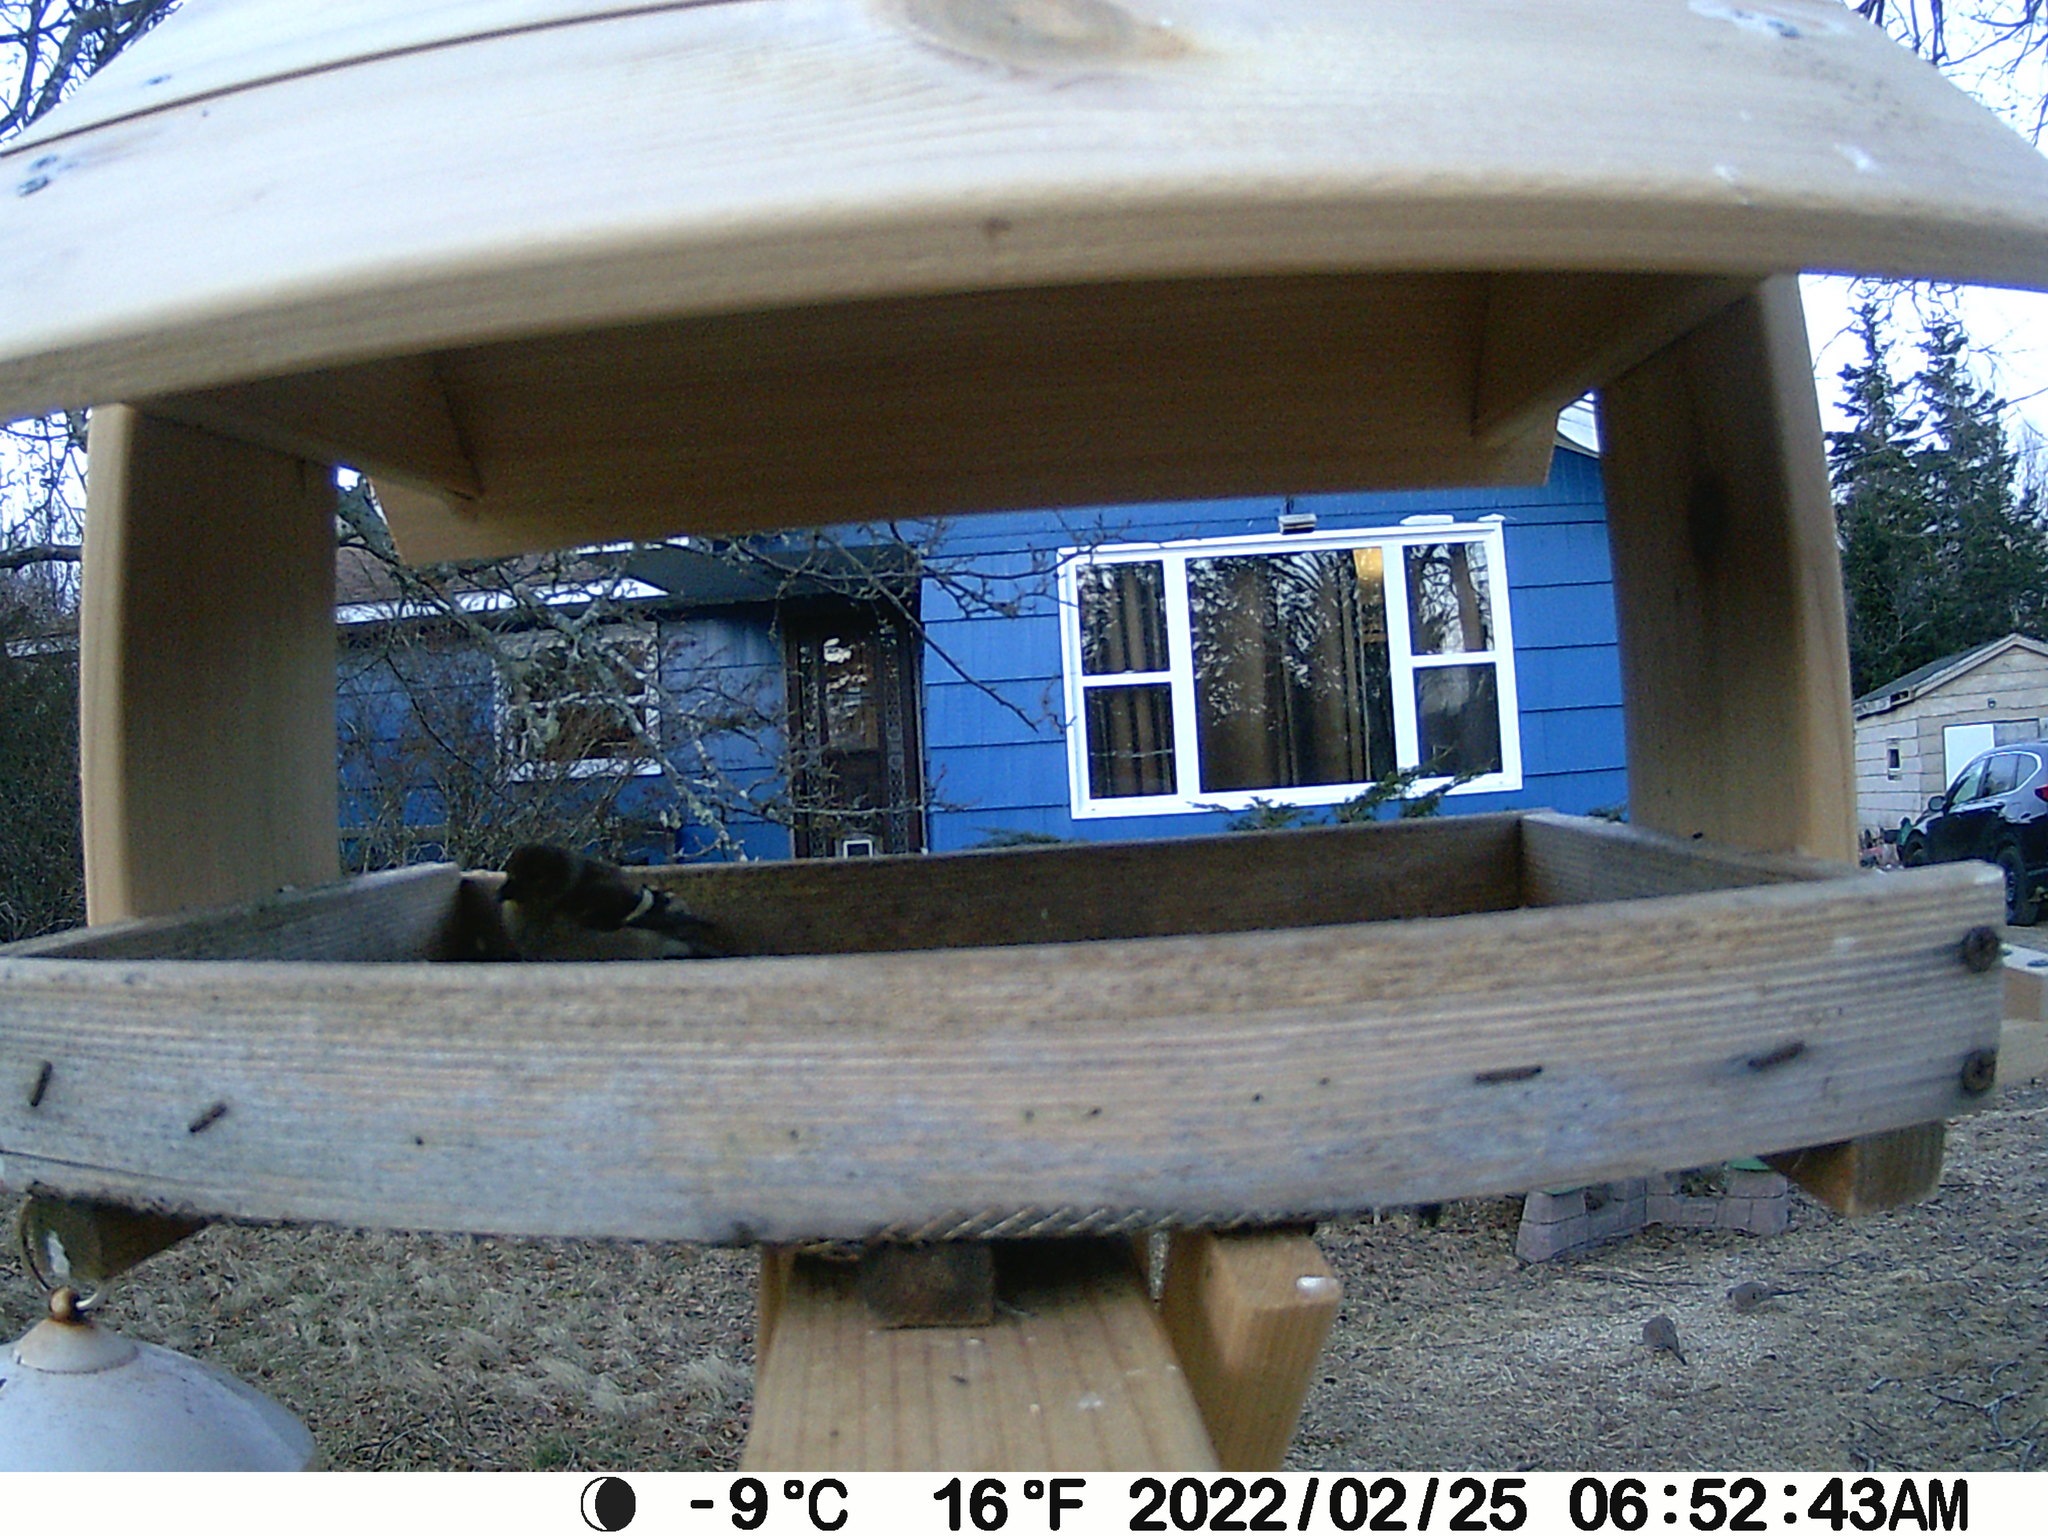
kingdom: Animalia
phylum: Chordata
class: Aves
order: Columbiformes
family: Columbidae
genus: Zenaida
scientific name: Zenaida macroura
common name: Mourning dove
